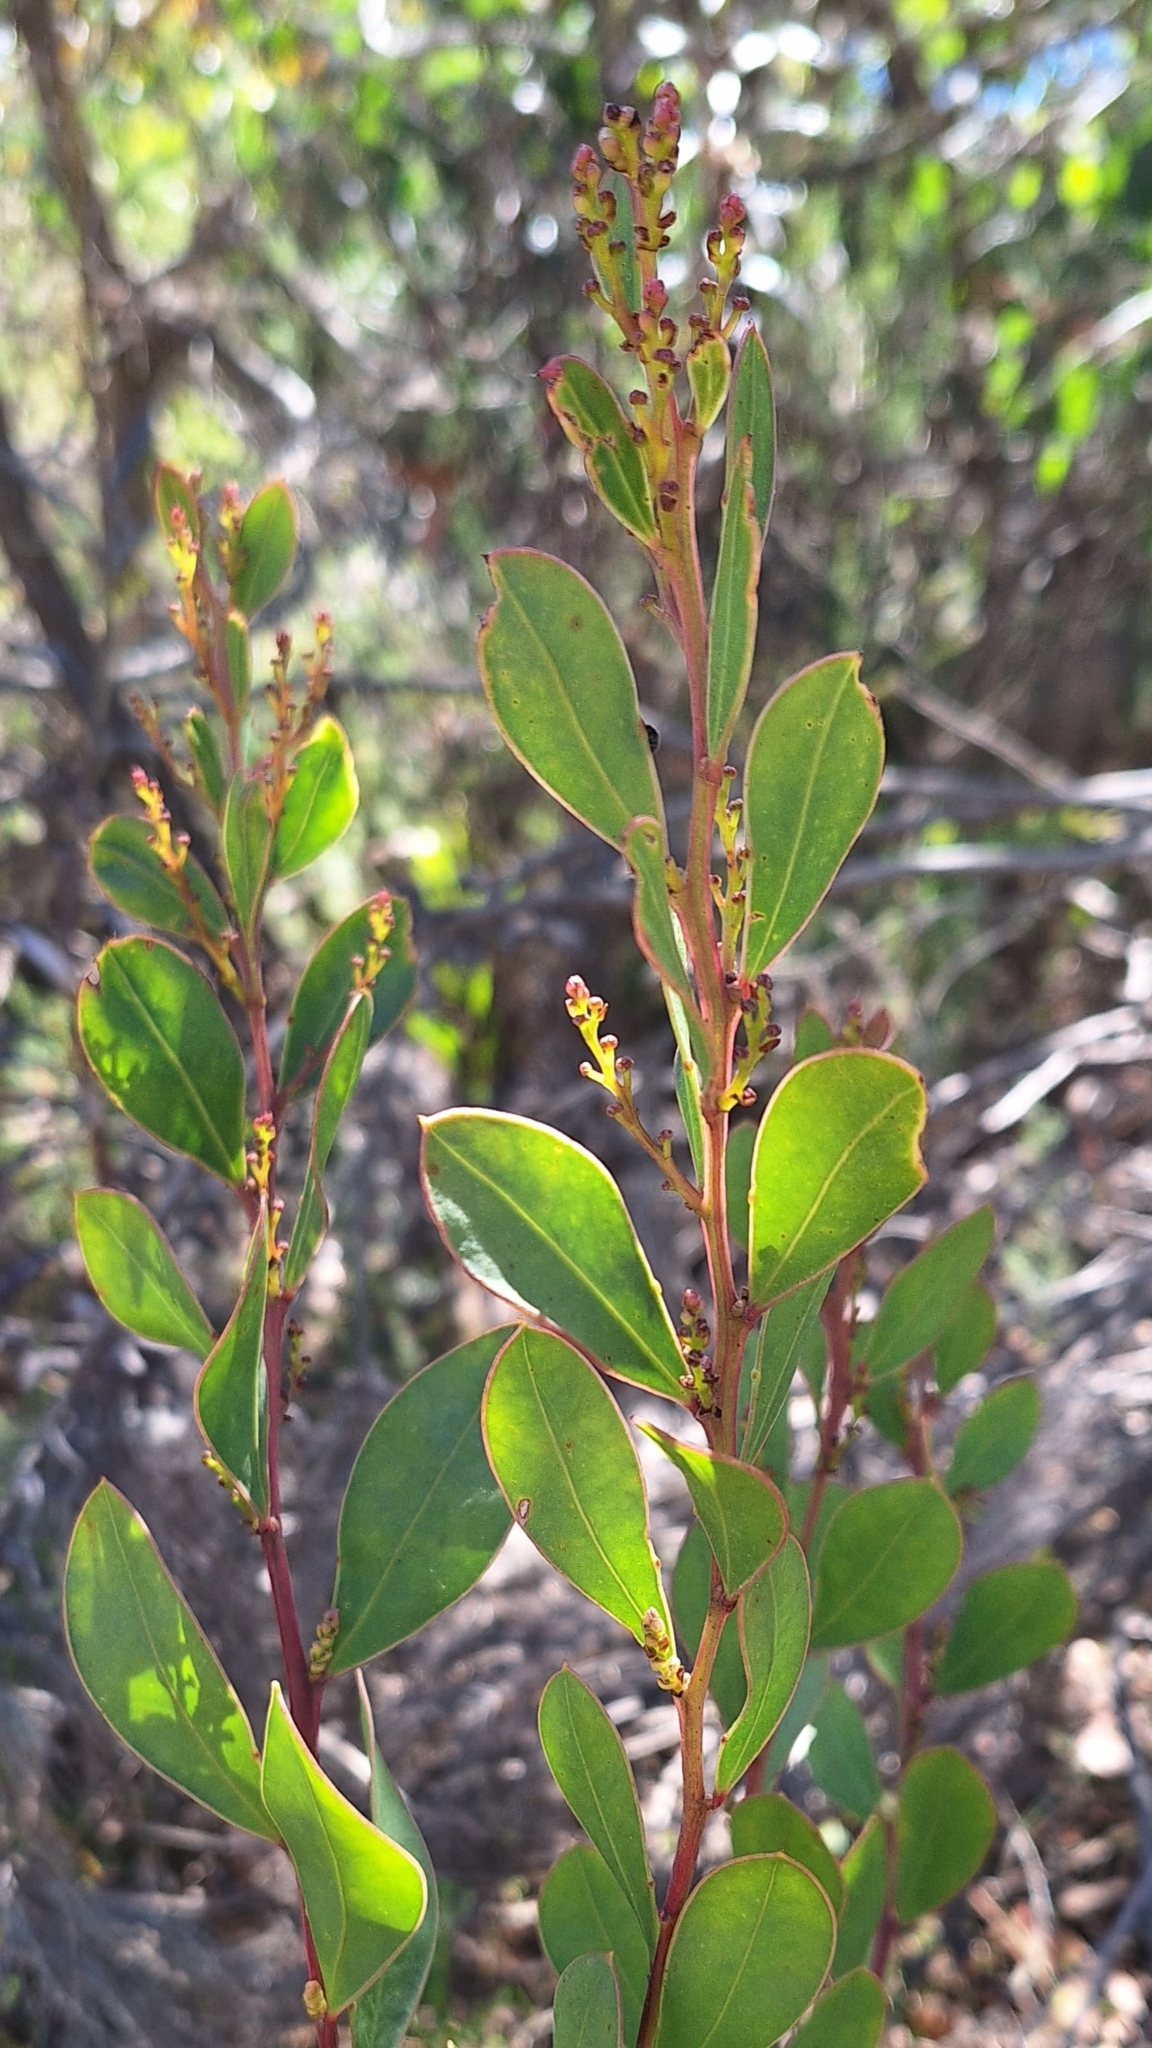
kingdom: Plantae
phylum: Tracheophyta
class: Magnoliopsida
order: Fabales
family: Fabaceae
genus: Acacia
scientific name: Acacia myrtifolia
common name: Myrtle wattle
